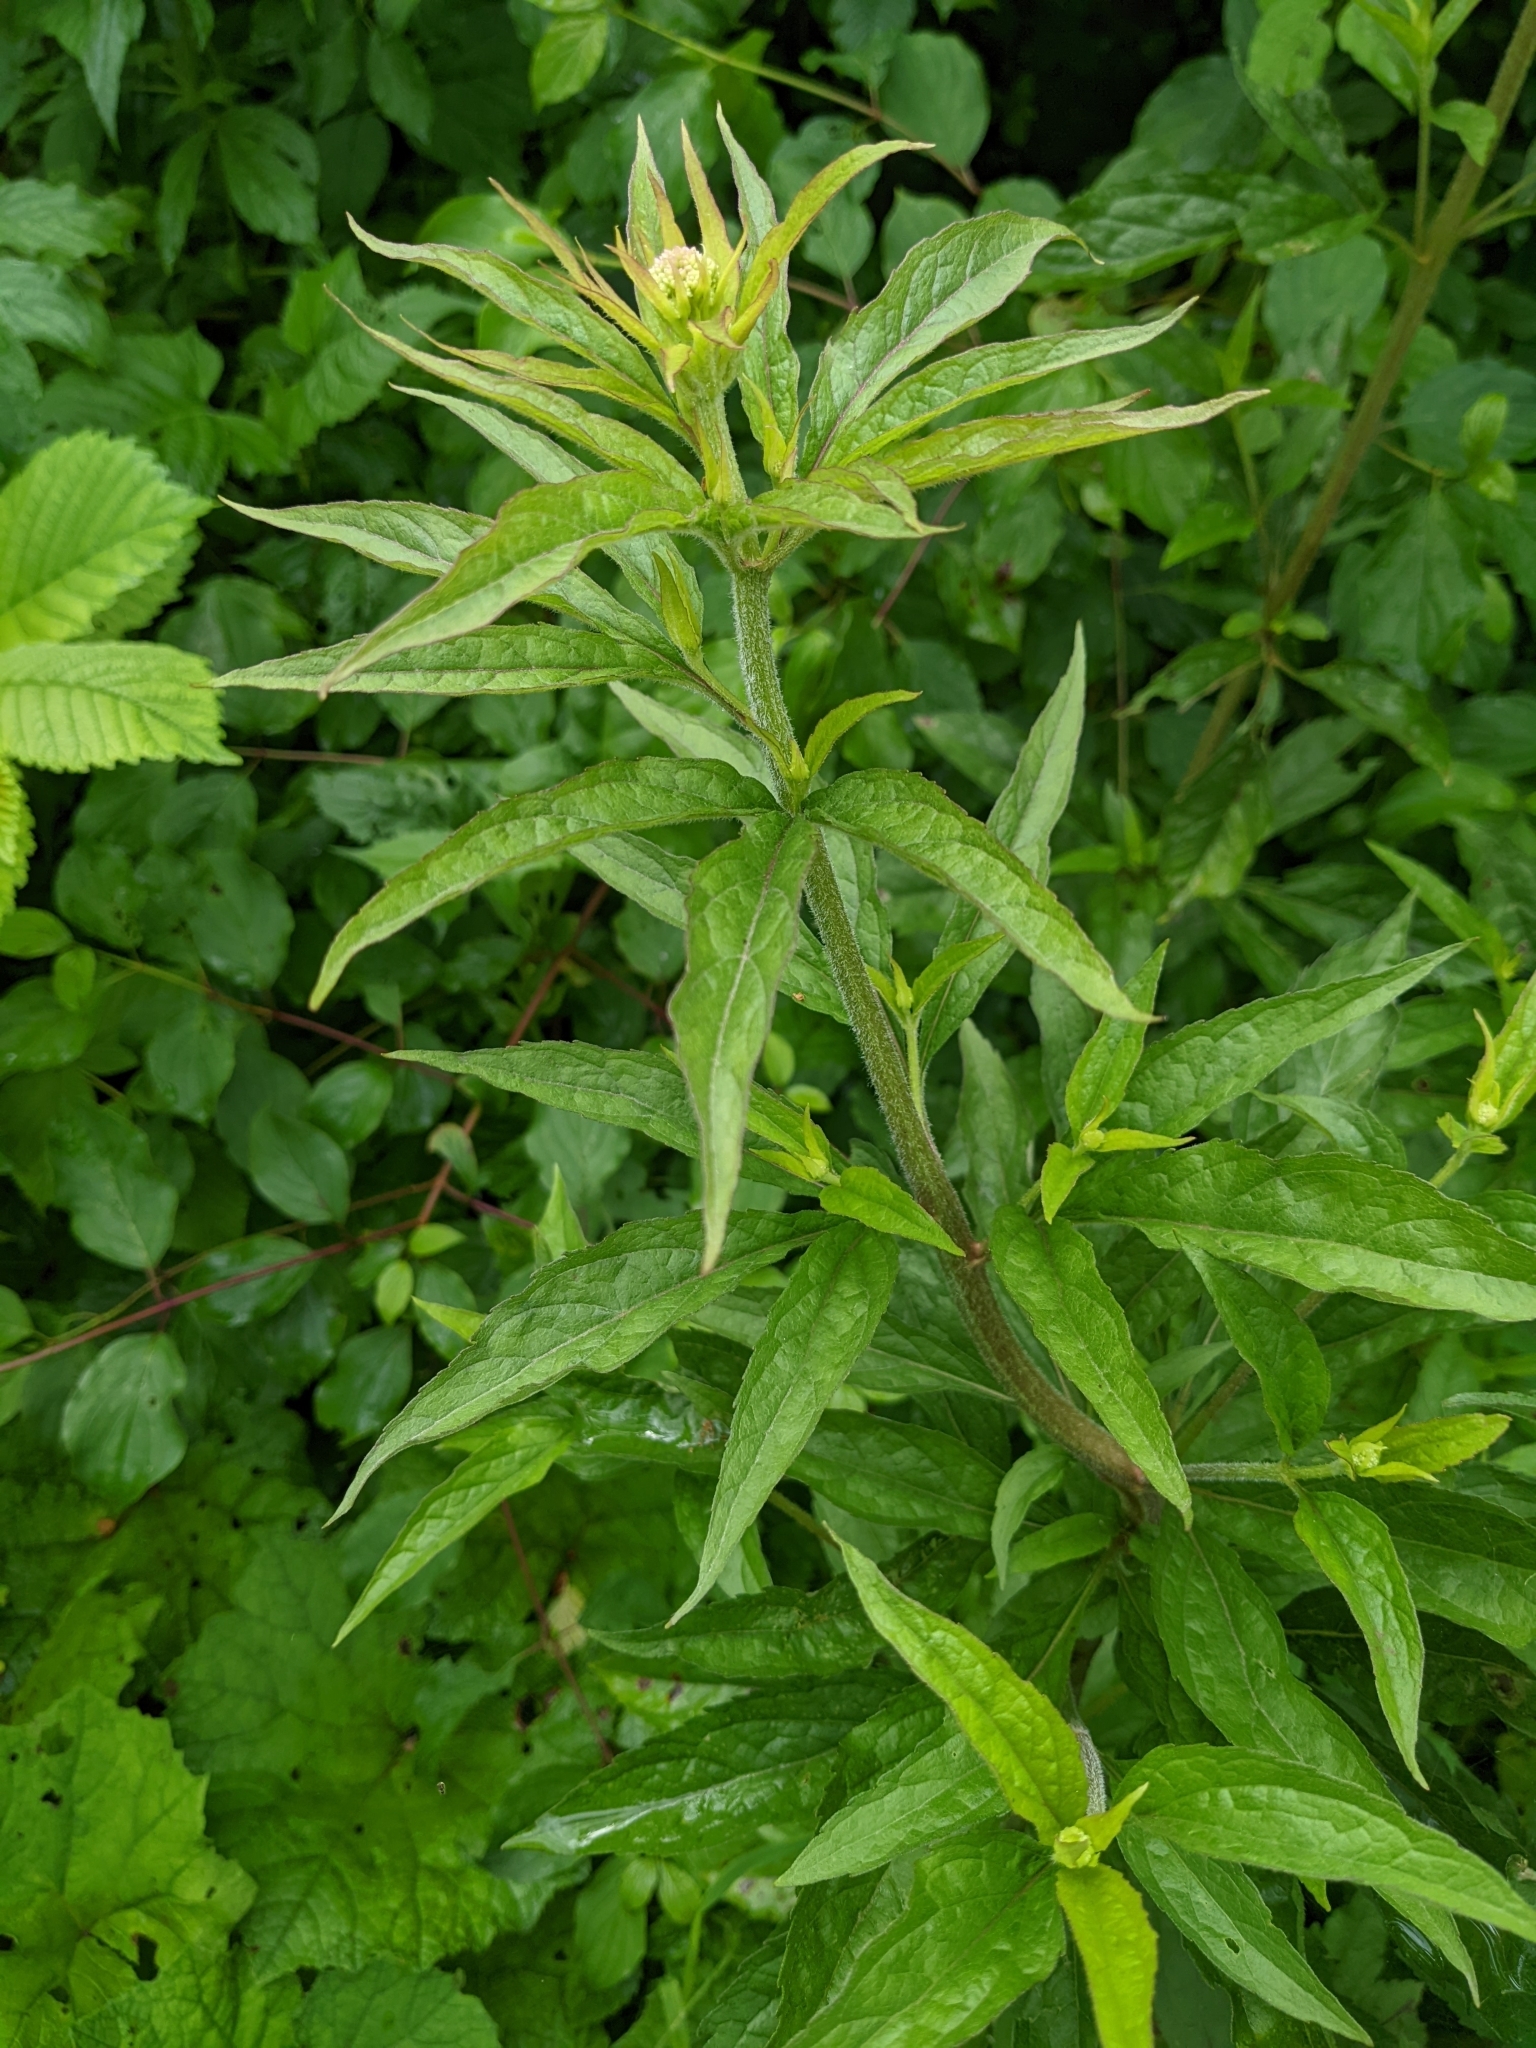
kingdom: Plantae
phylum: Tracheophyta
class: Magnoliopsida
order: Asterales
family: Asteraceae
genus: Eupatorium
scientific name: Eupatorium cannabinum
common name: Hemp-agrimony
